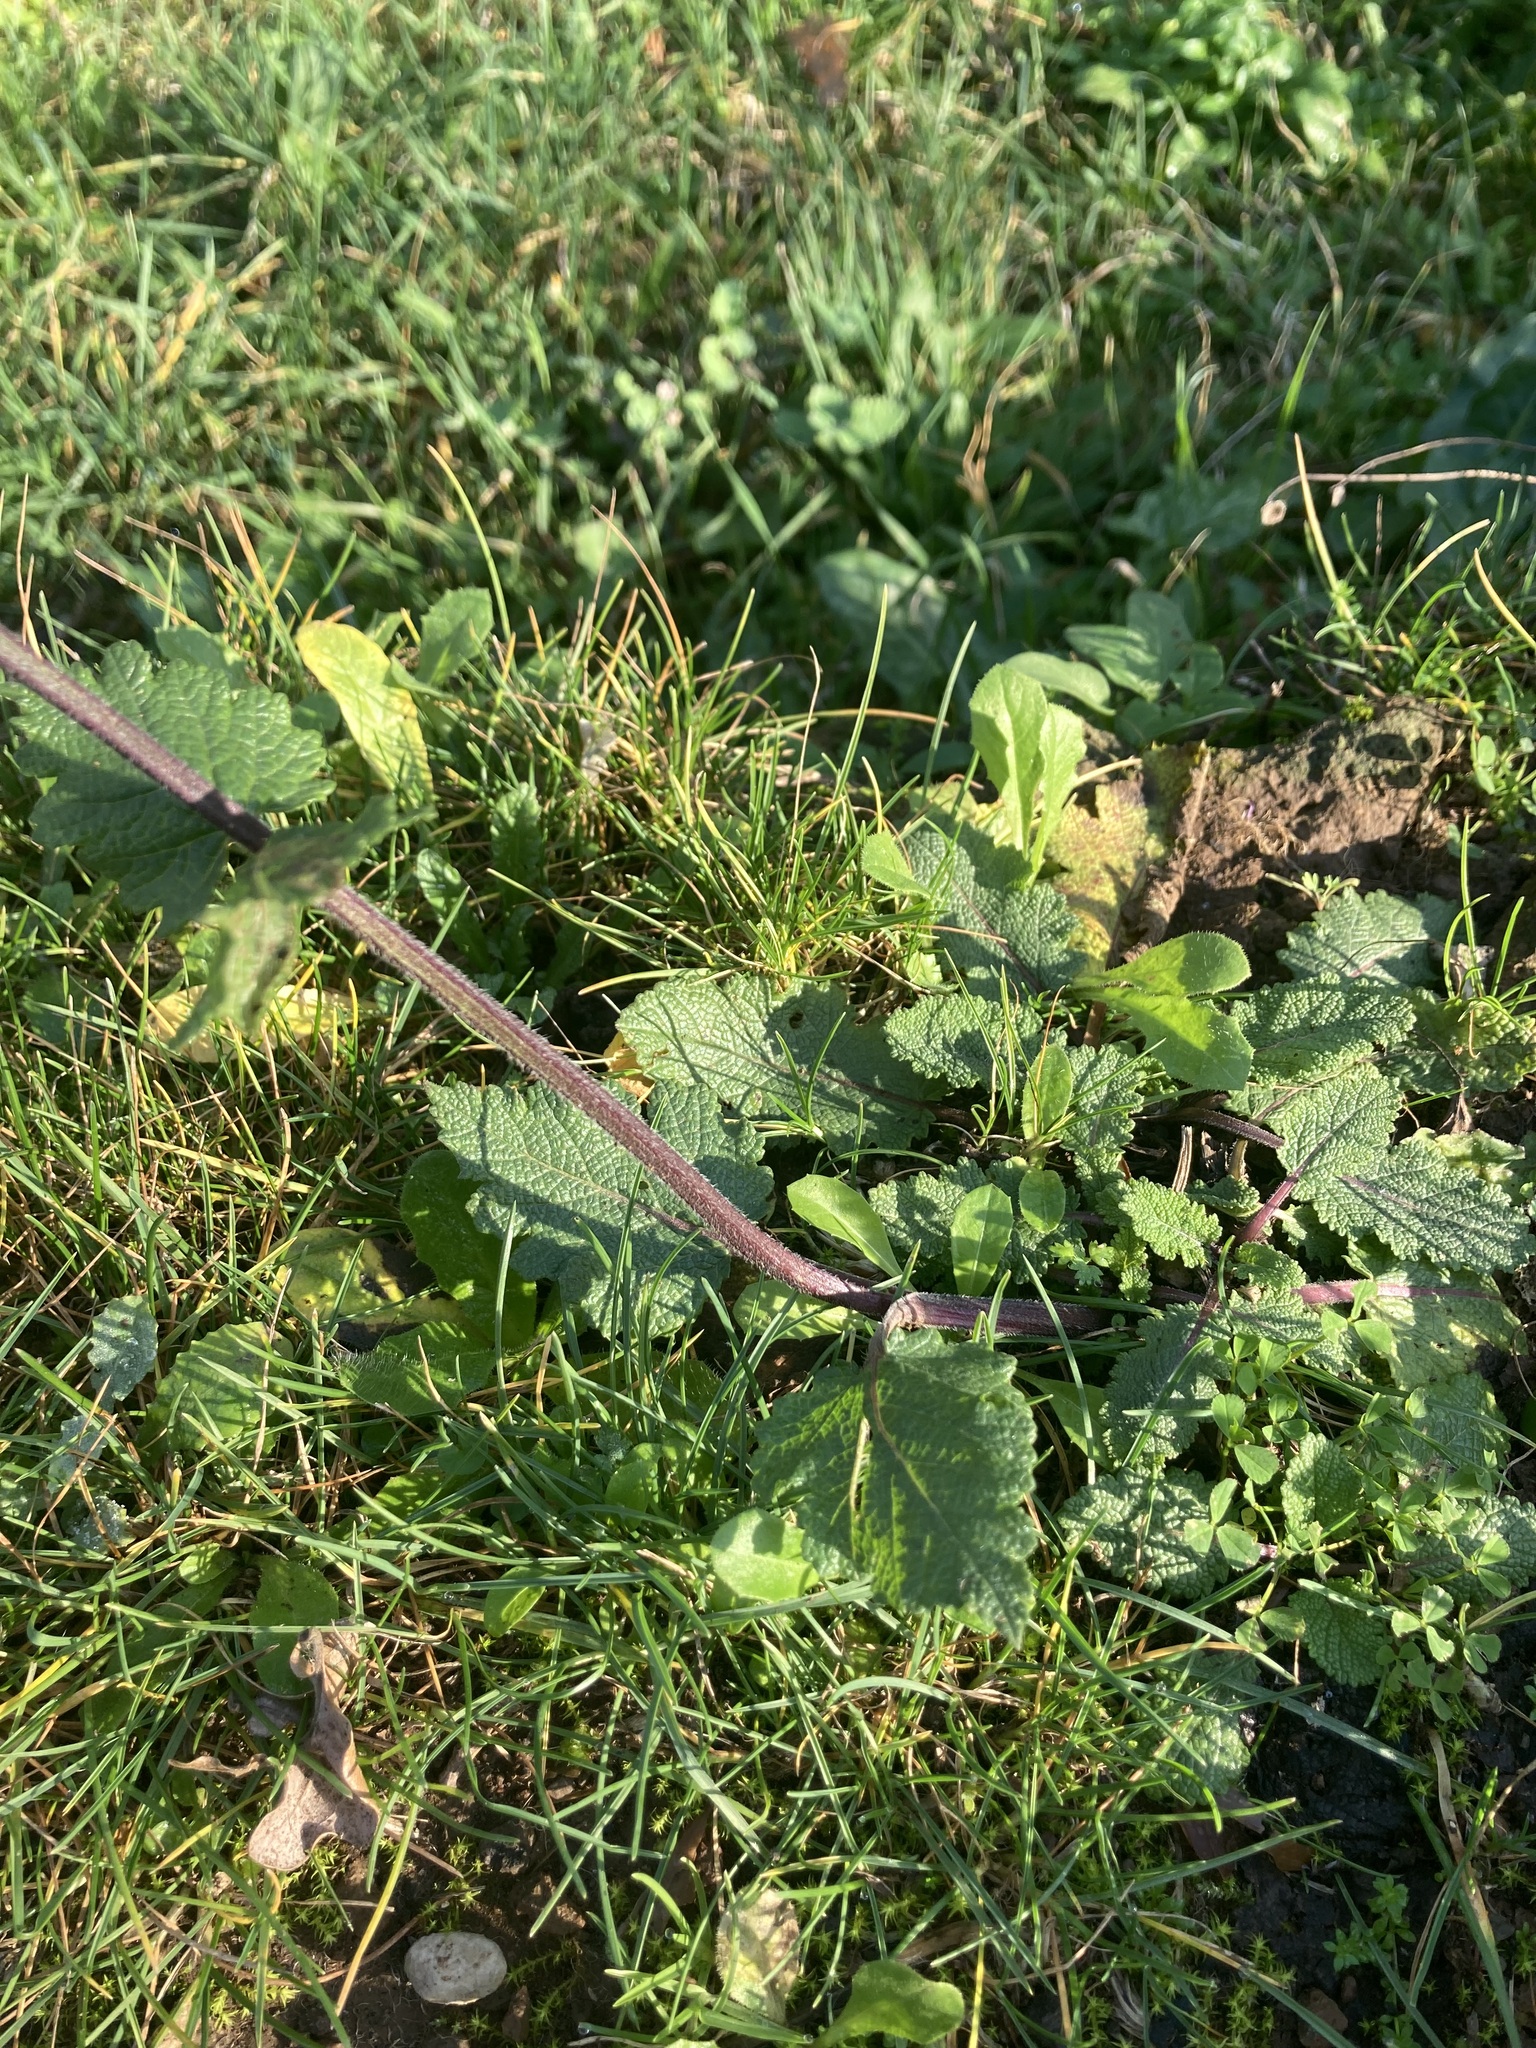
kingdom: Plantae
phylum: Tracheophyta
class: Magnoliopsida
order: Lamiales
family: Lamiaceae
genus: Salvia
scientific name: Salvia verbenaca
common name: Wild clary
